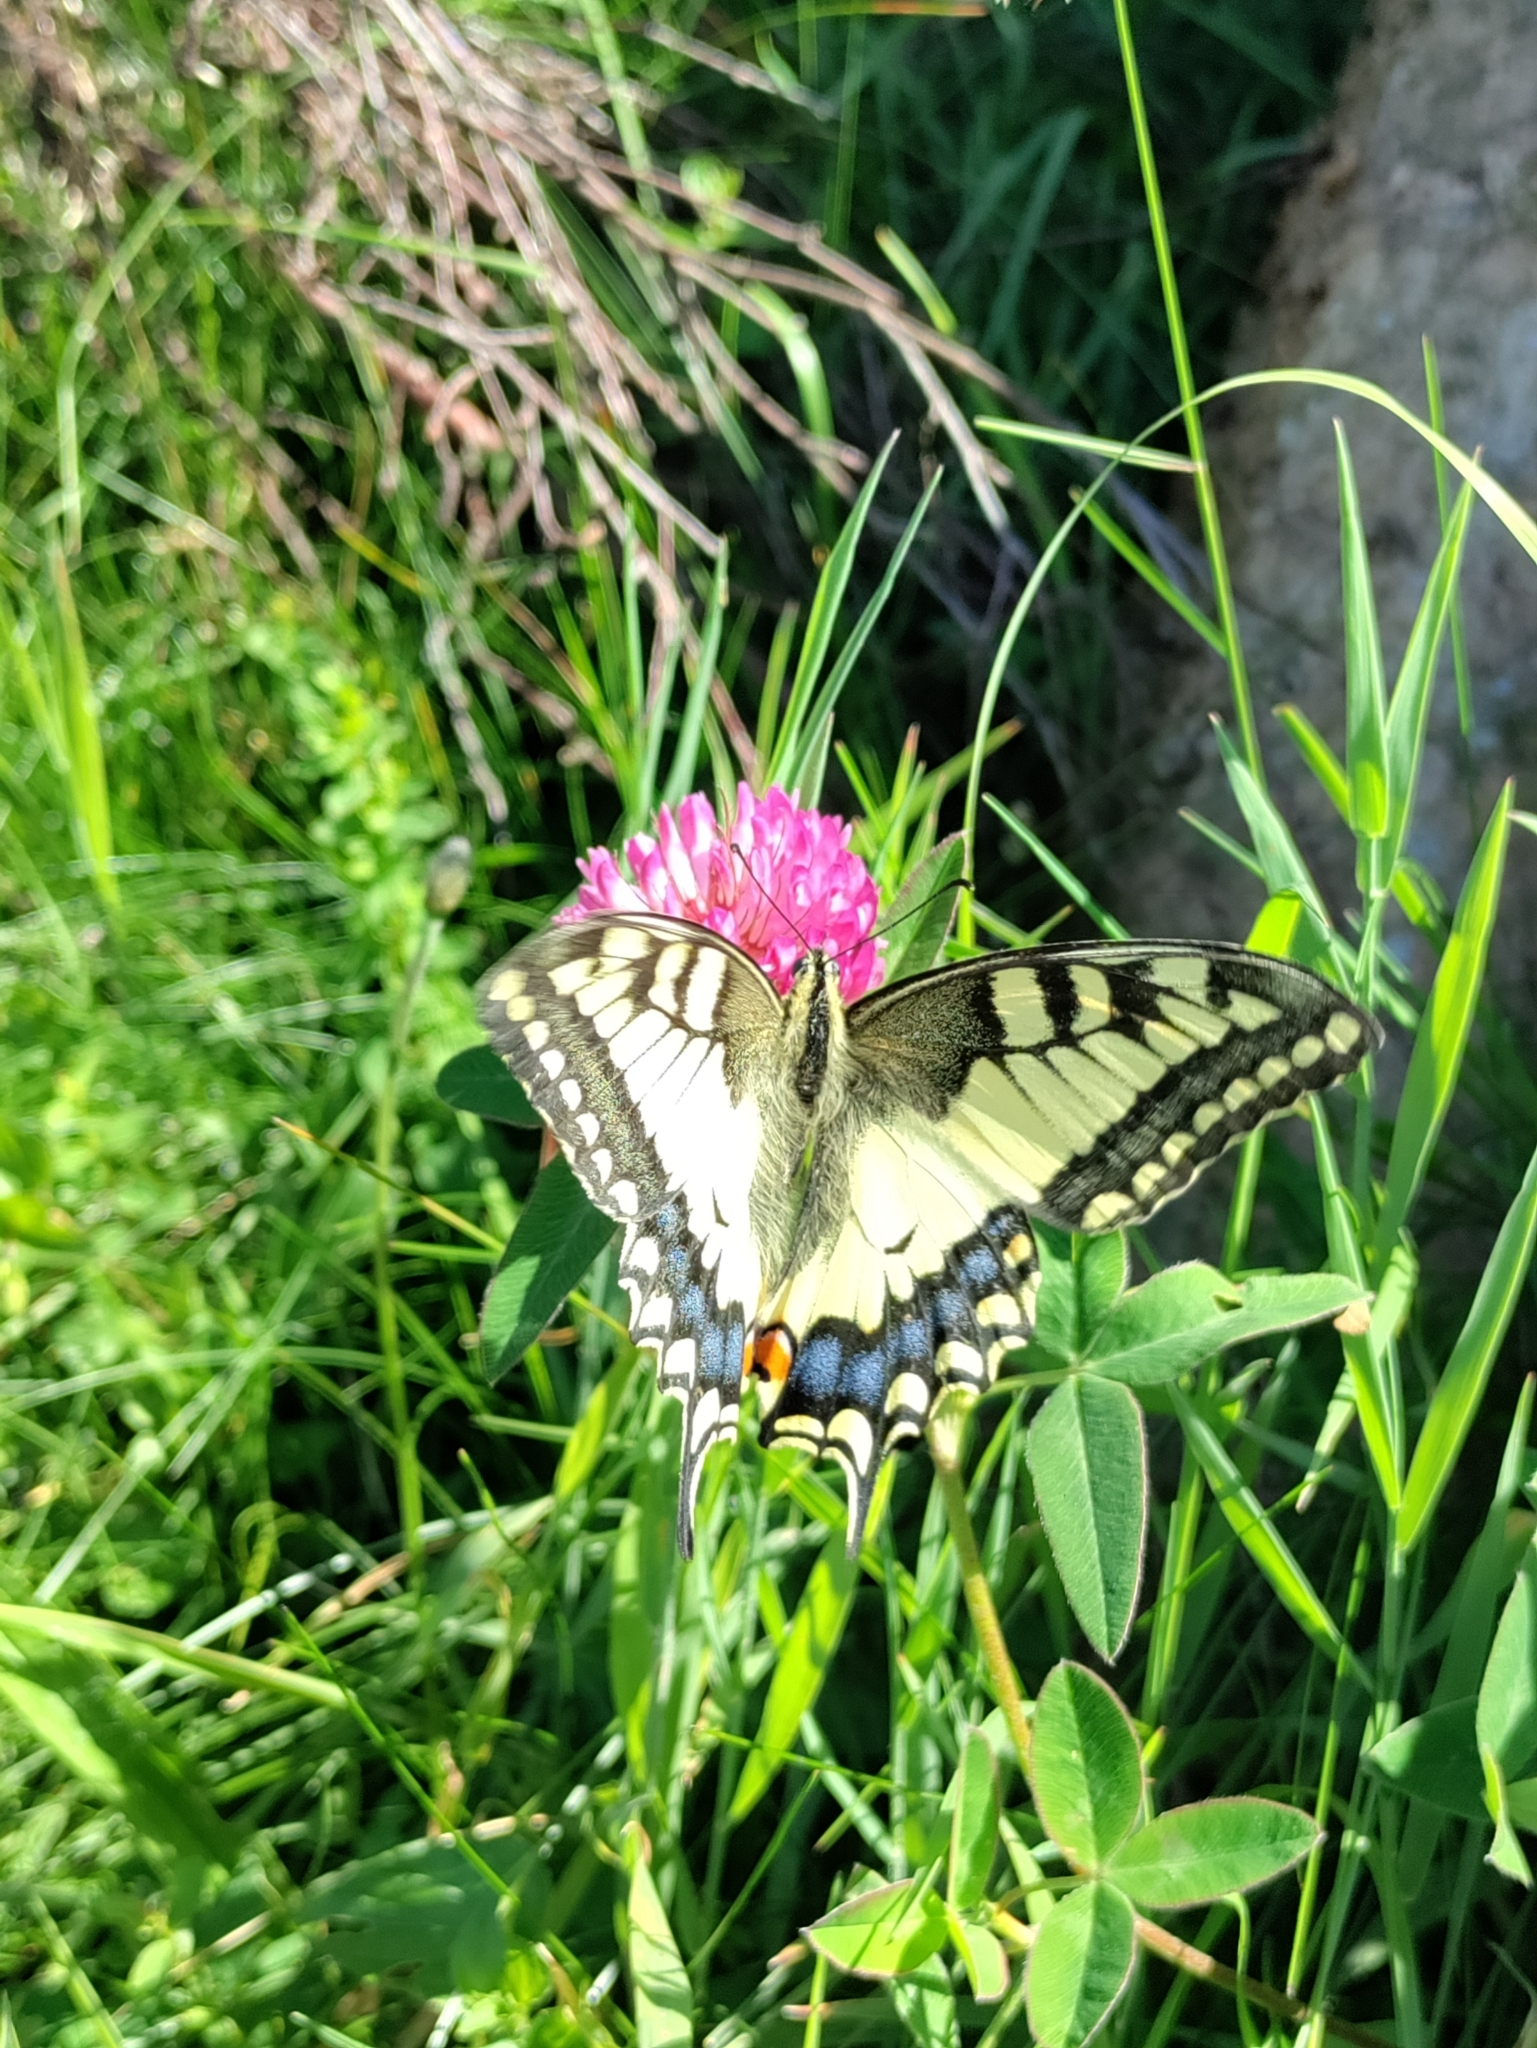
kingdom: Animalia
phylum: Arthropoda
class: Insecta
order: Lepidoptera
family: Papilionidae
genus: Papilio
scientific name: Papilio machaon
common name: Swallowtail
